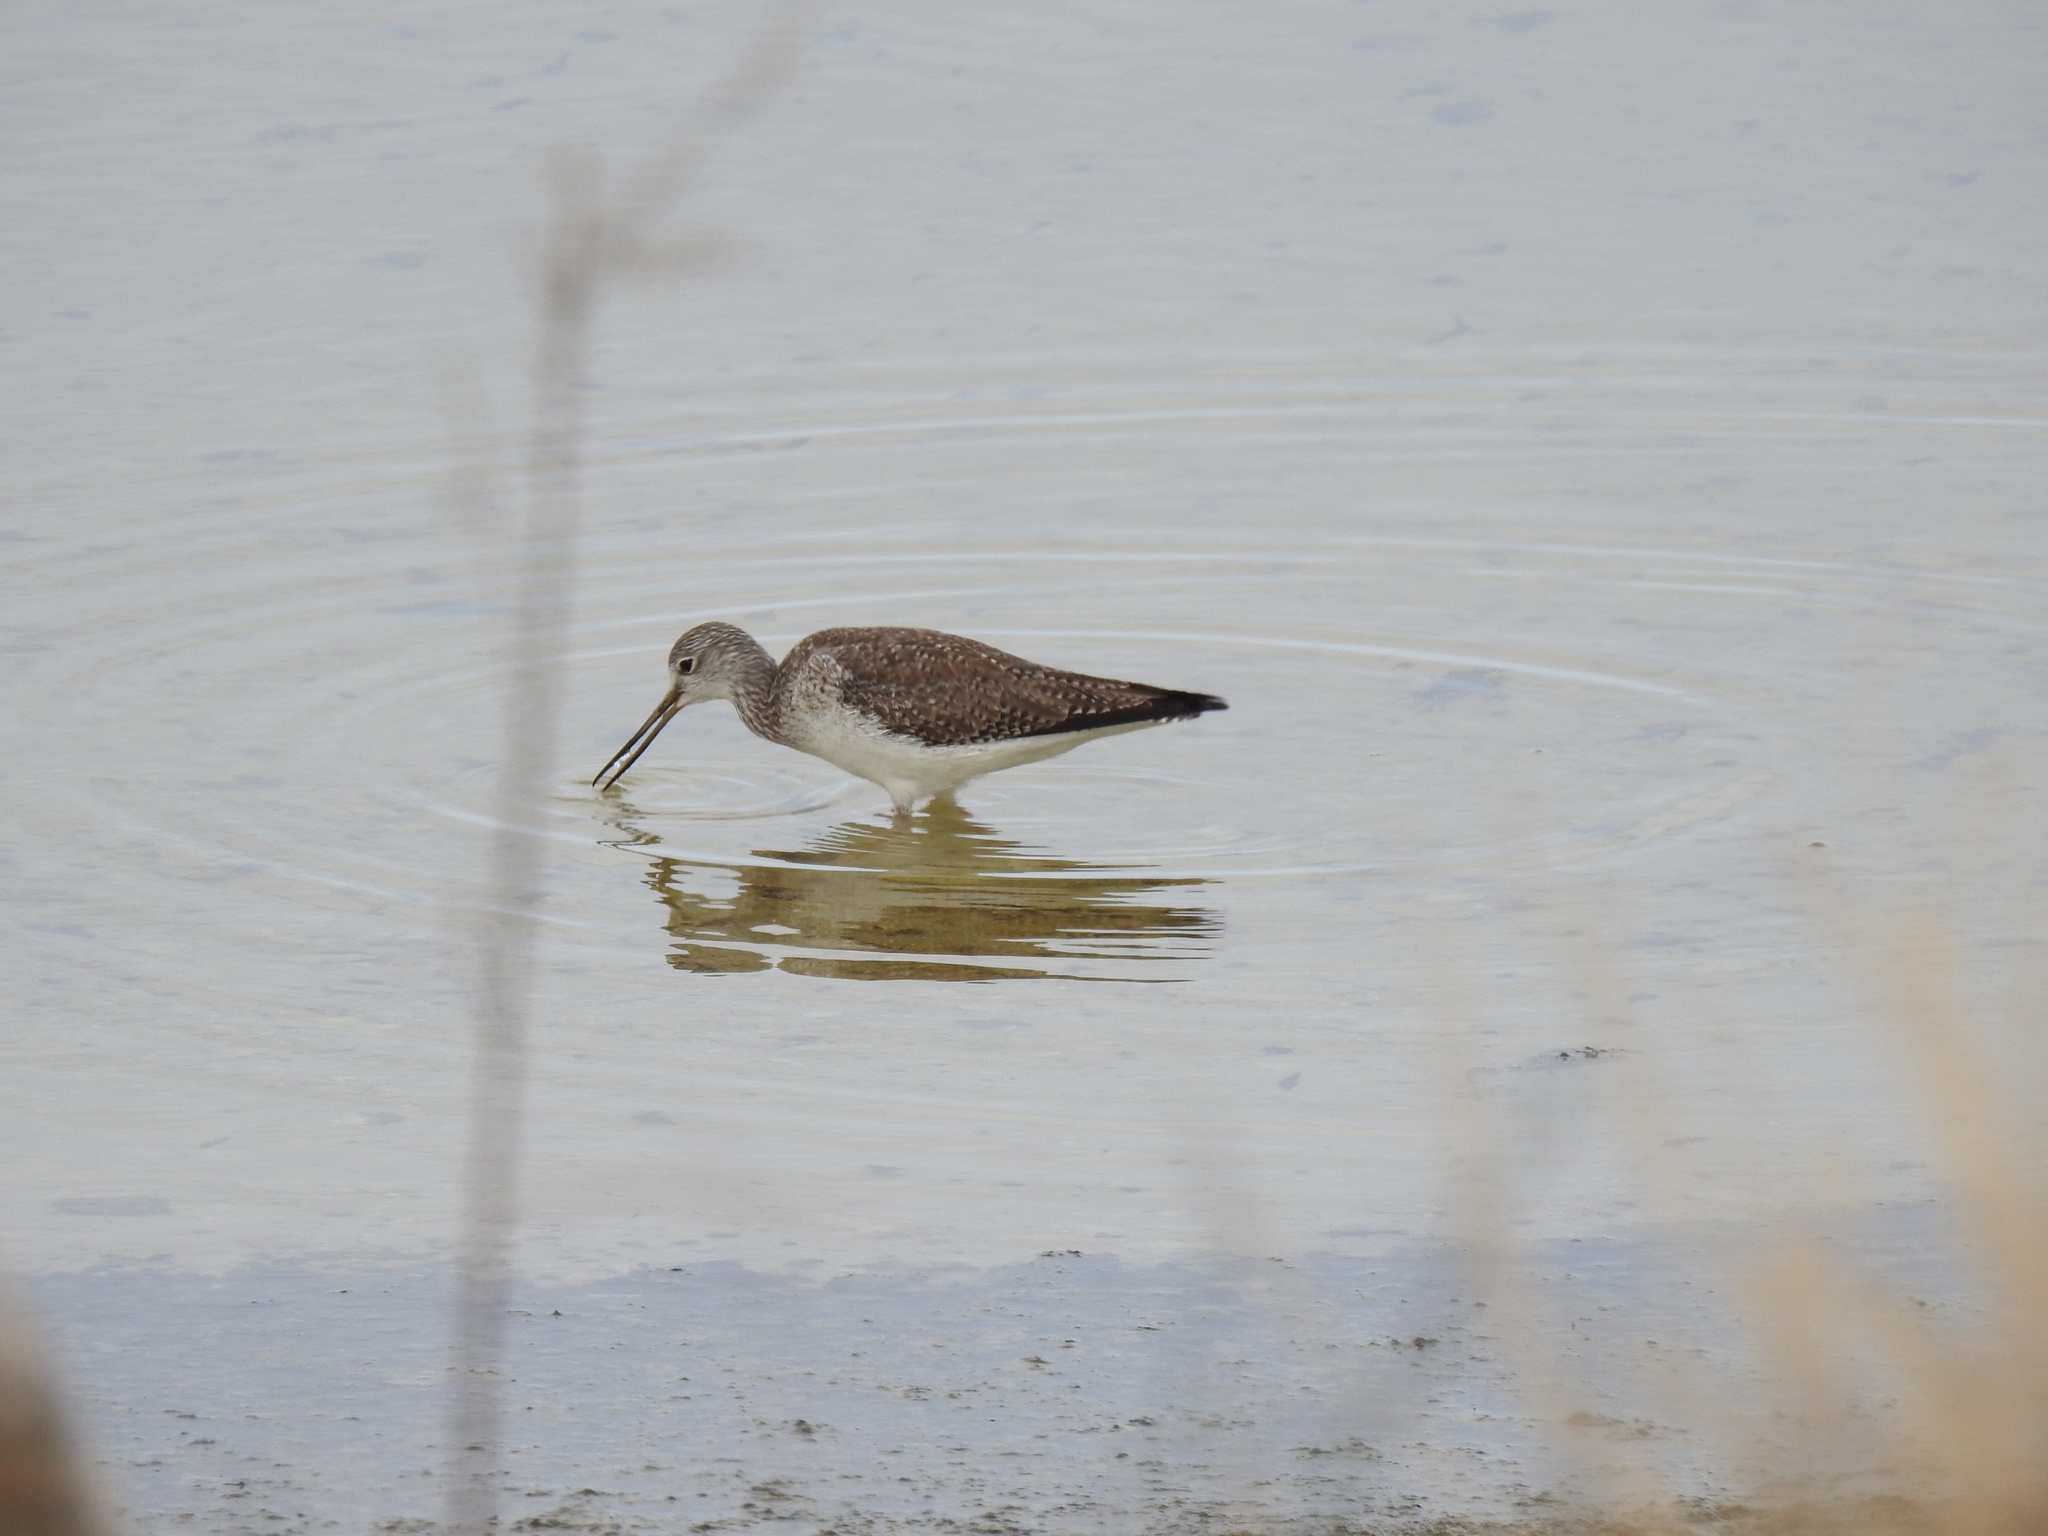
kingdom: Animalia
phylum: Chordata
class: Aves
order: Charadriiformes
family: Scolopacidae
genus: Tringa
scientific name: Tringa melanoleuca
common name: Greater yellowlegs
